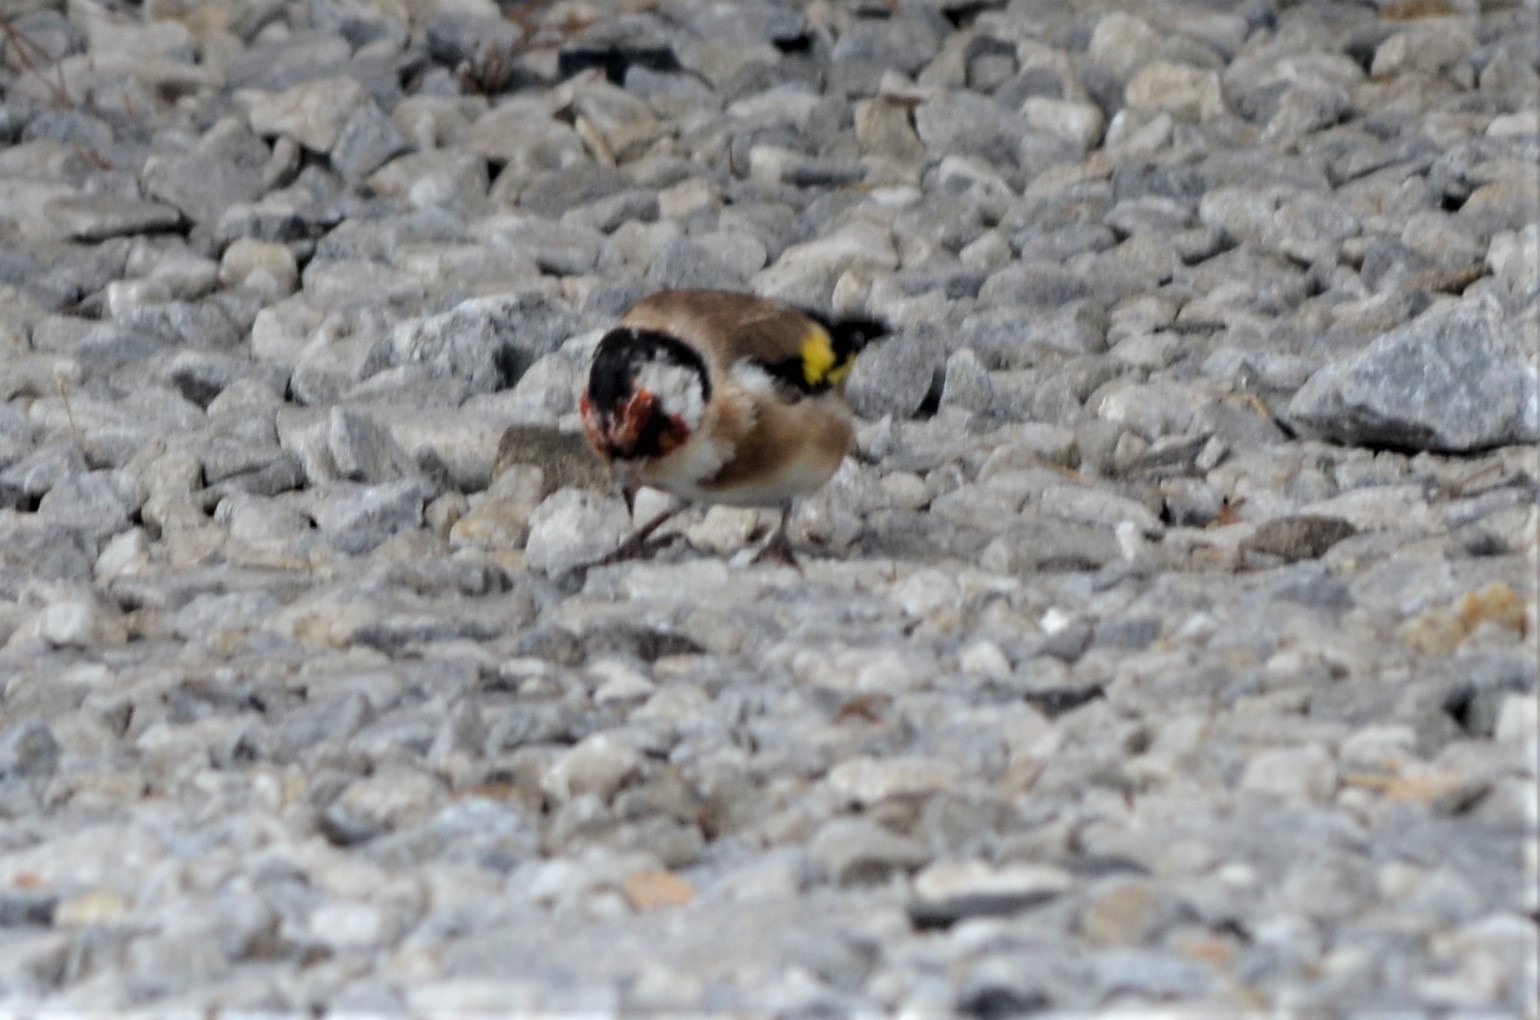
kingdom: Animalia
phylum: Chordata
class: Aves
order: Passeriformes
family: Fringillidae
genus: Carduelis
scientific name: Carduelis carduelis
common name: European goldfinch
